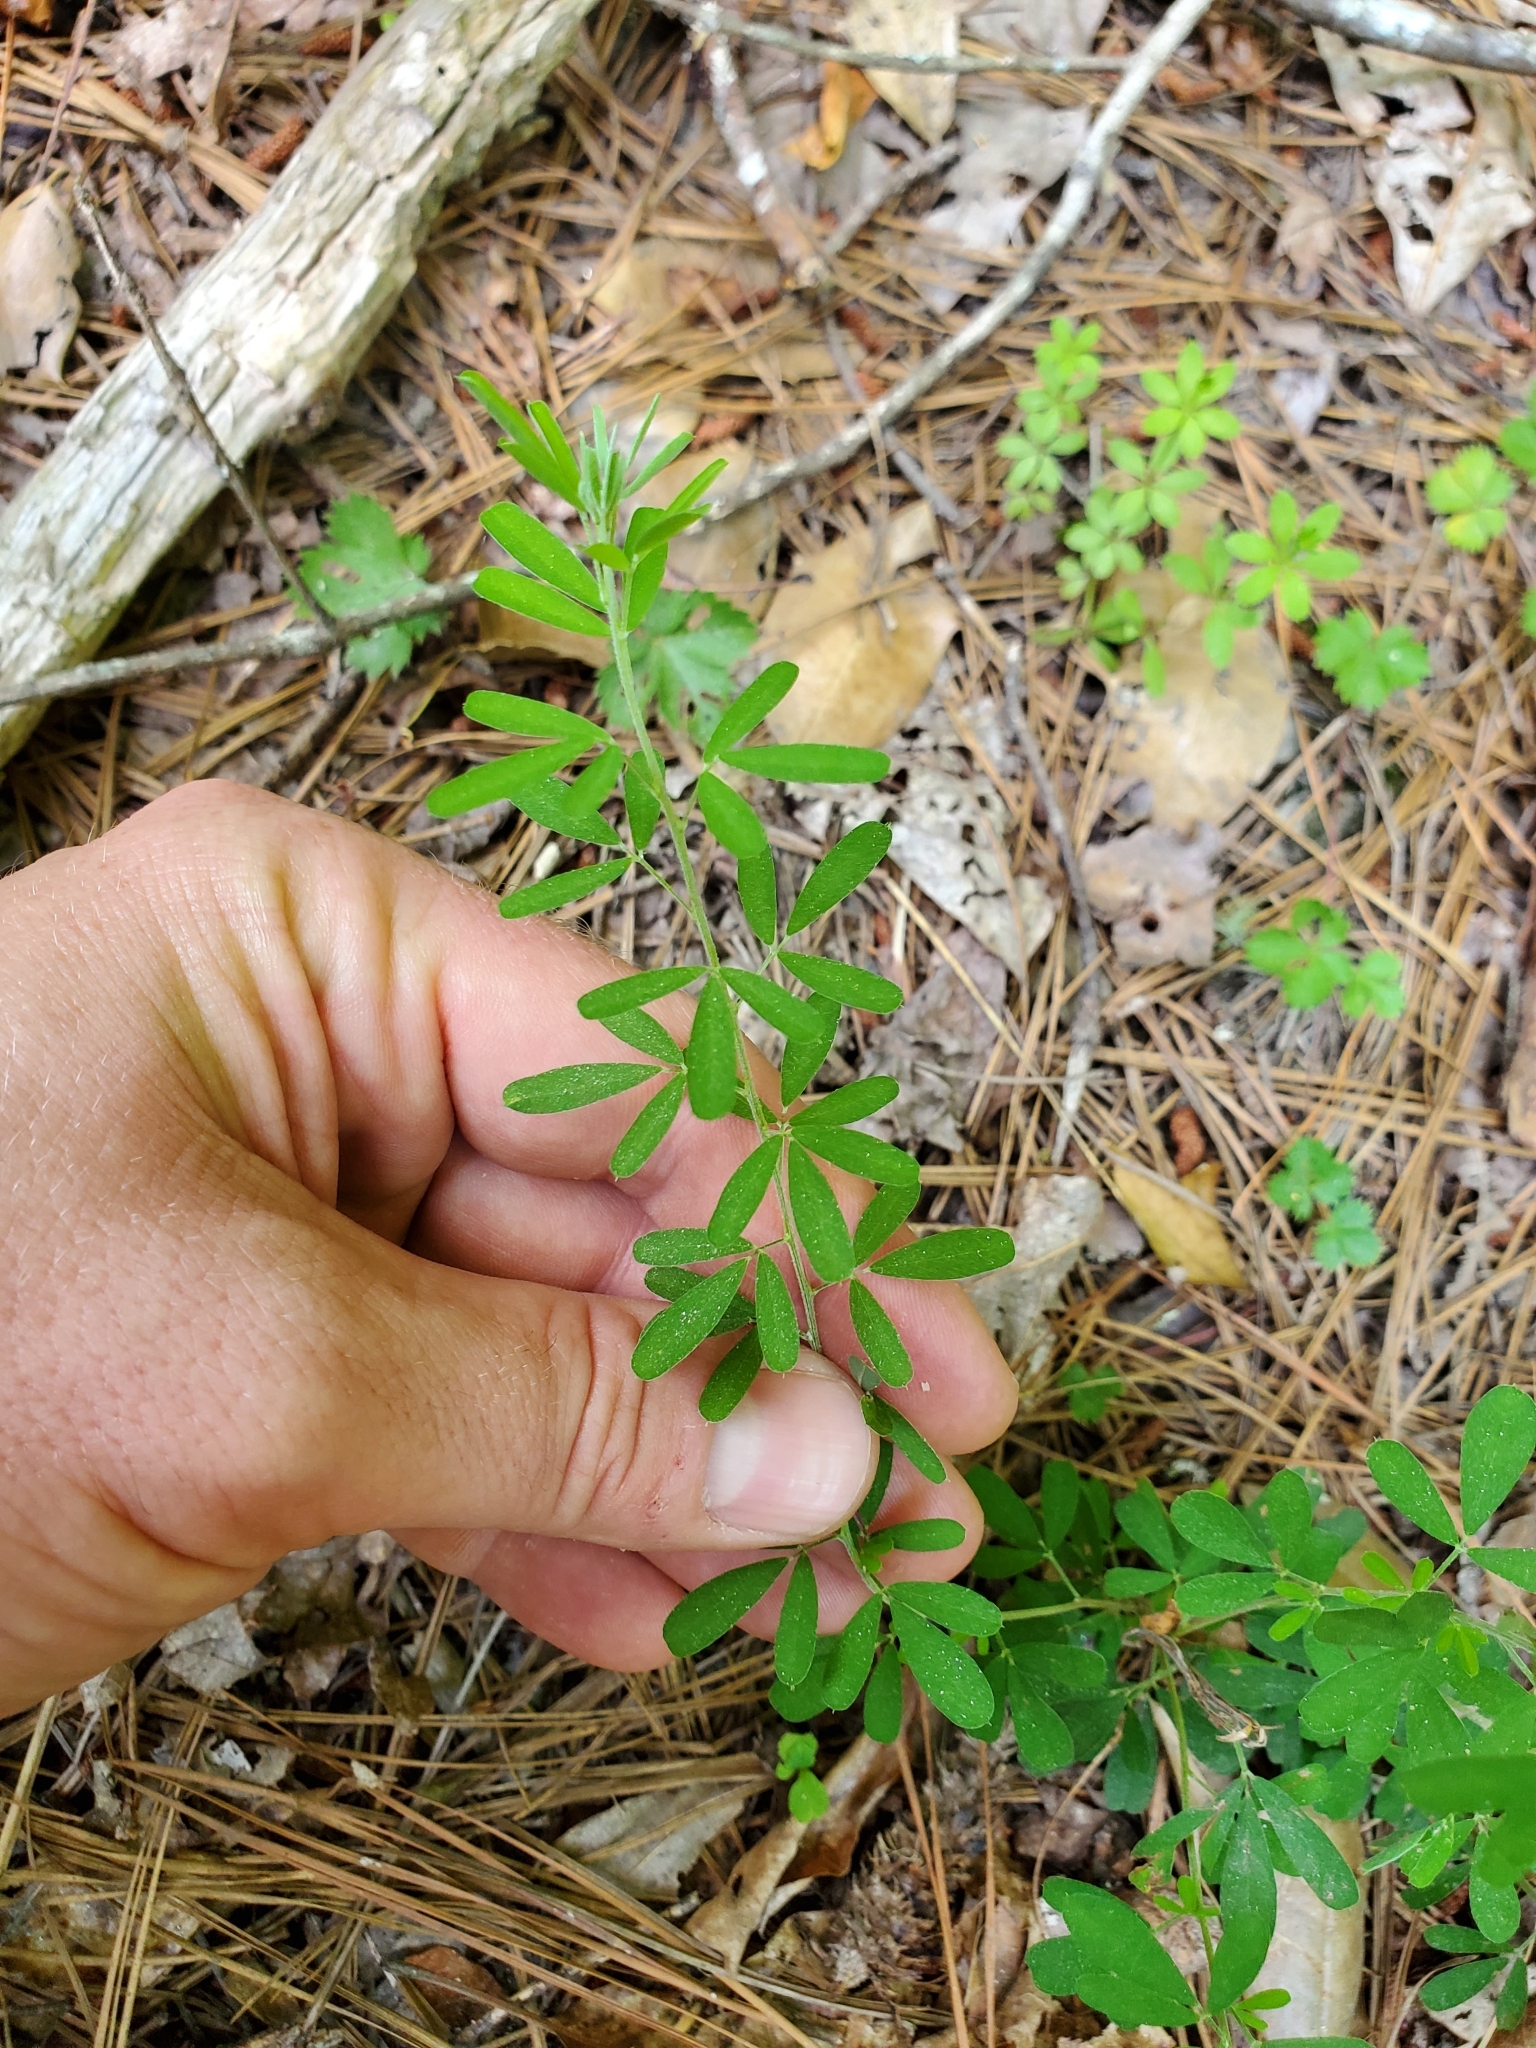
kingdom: Plantae
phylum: Tracheophyta
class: Magnoliopsida
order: Fabales
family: Fabaceae
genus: Lespedeza
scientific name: Lespedeza cuneata
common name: Chinese bush-clover
